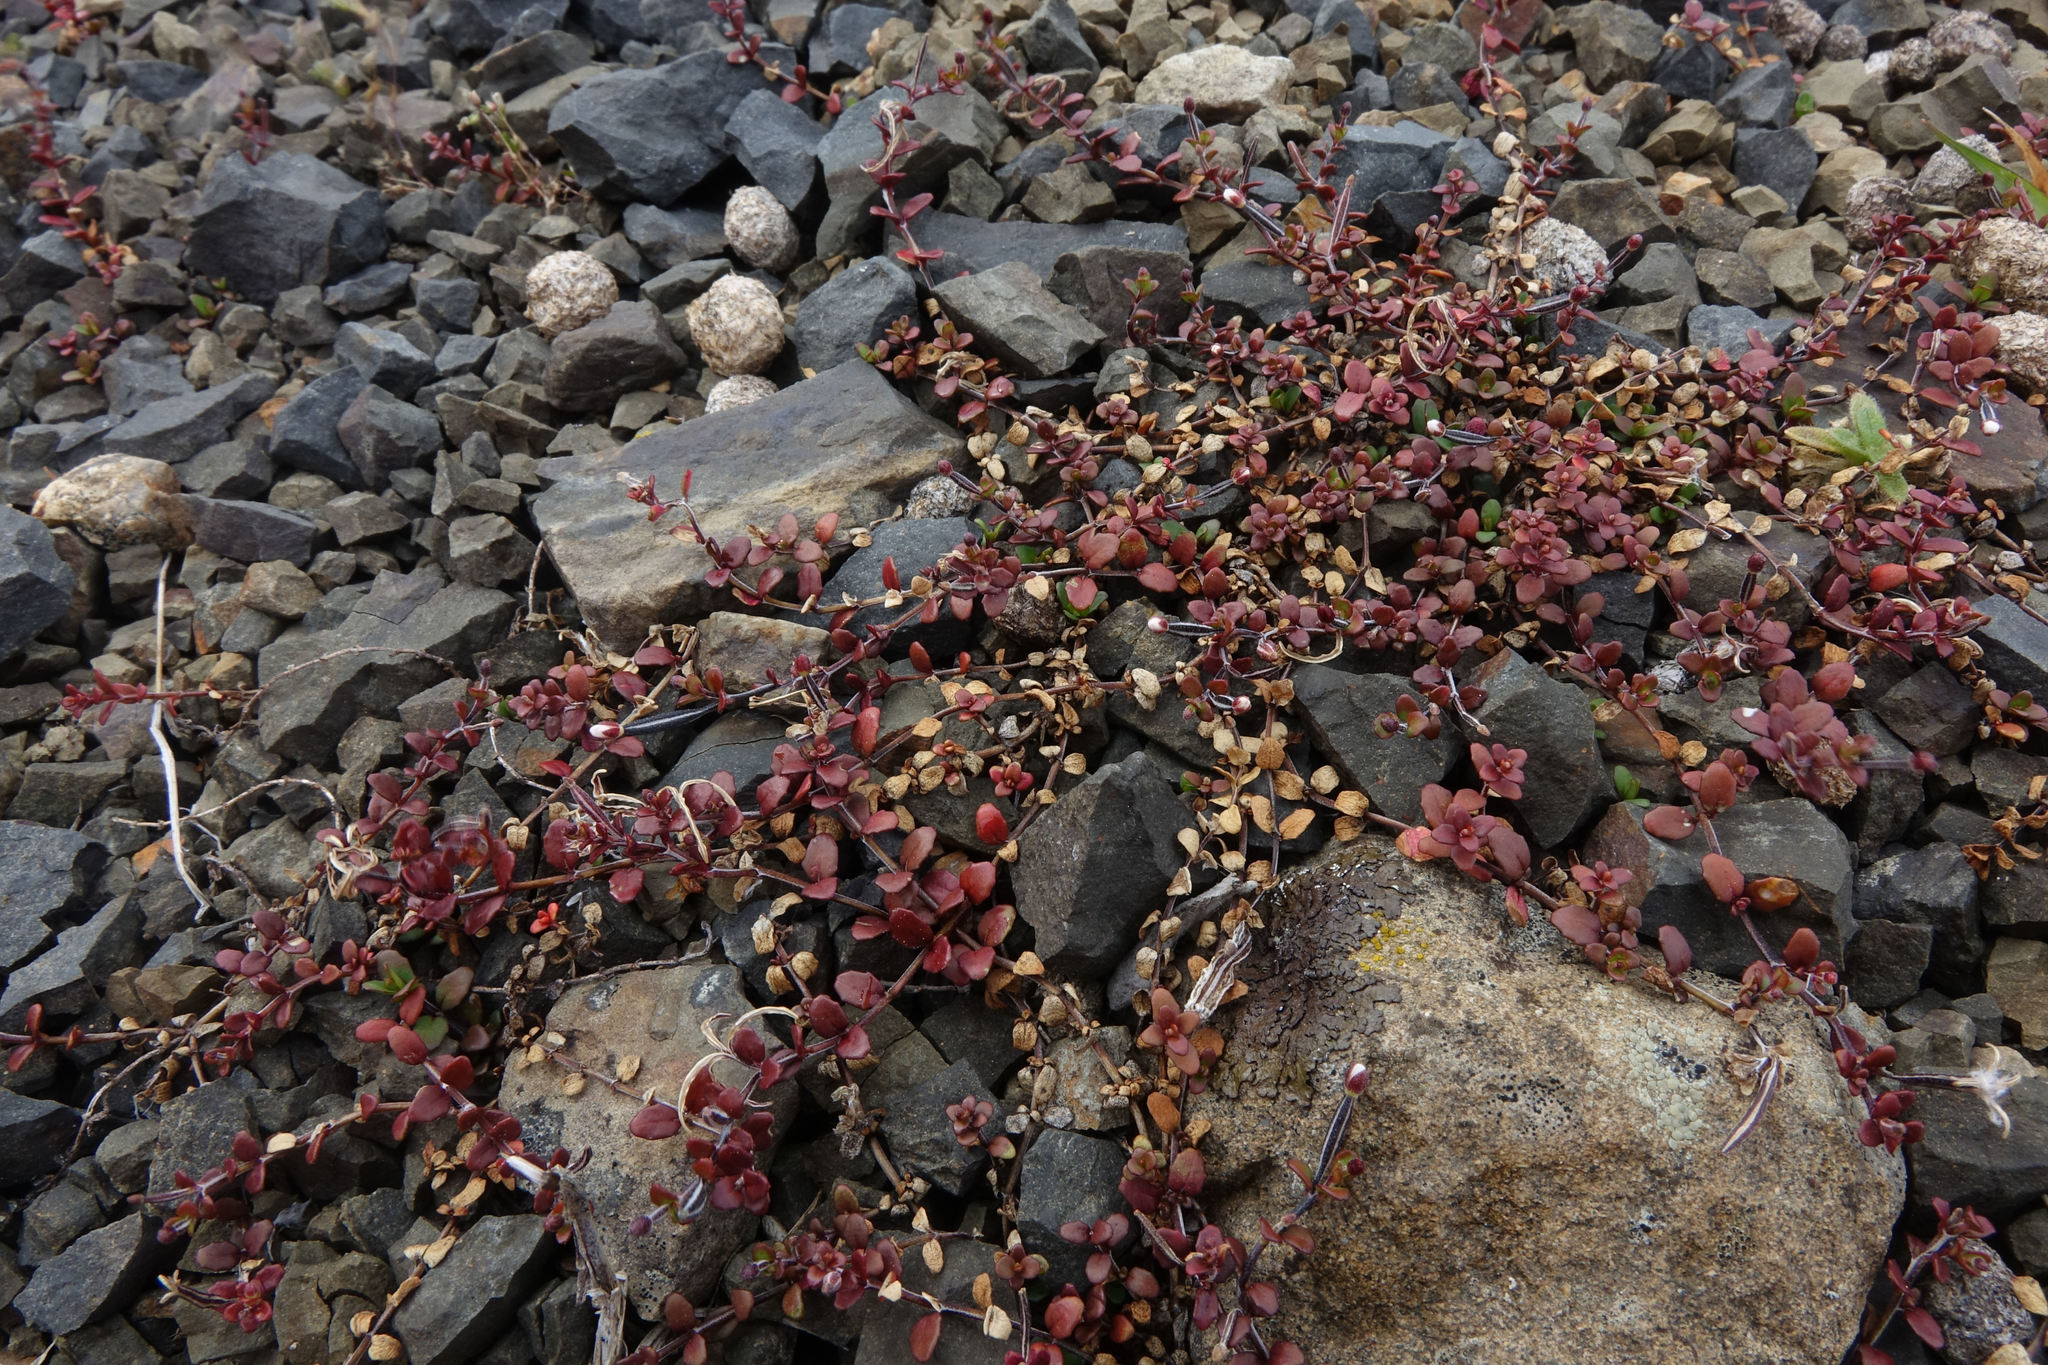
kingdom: Plantae
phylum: Tracheophyta
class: Magnoliopsida
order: Myrtales
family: Onagraceae
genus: Epilobium
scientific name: Epilobium microphyllum
